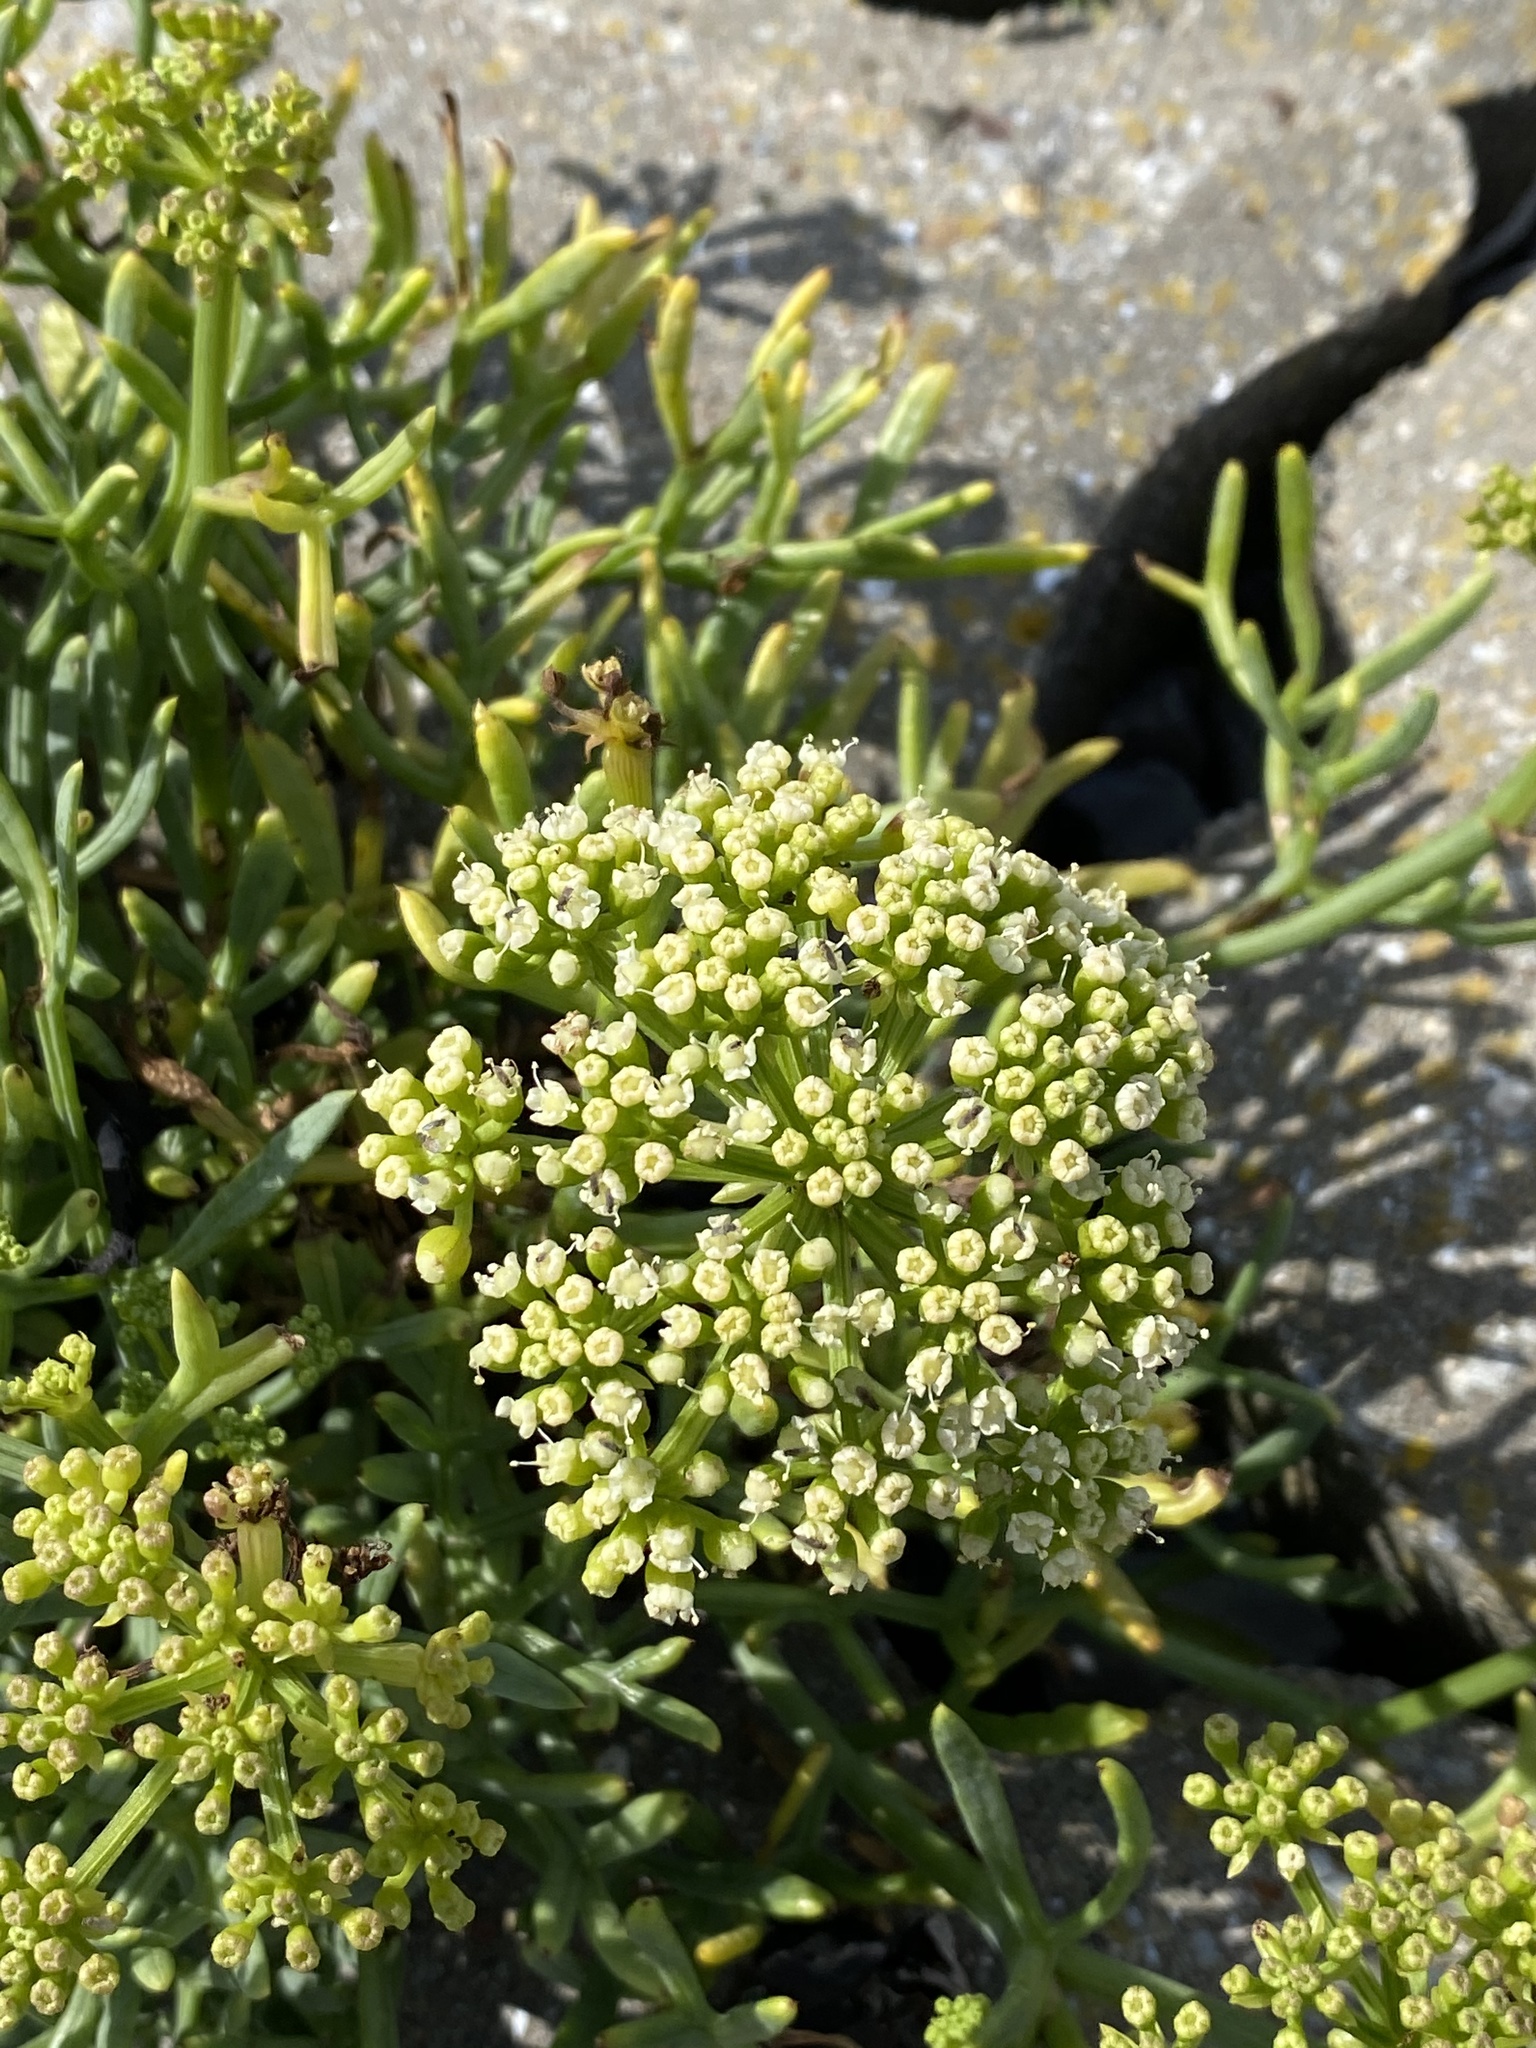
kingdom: Plantae
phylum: Tracheophyta
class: Magnoliopsida
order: Apiales
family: Apiaceae
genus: Crithmum
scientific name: Crithmum maritimum
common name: Rock samphire
